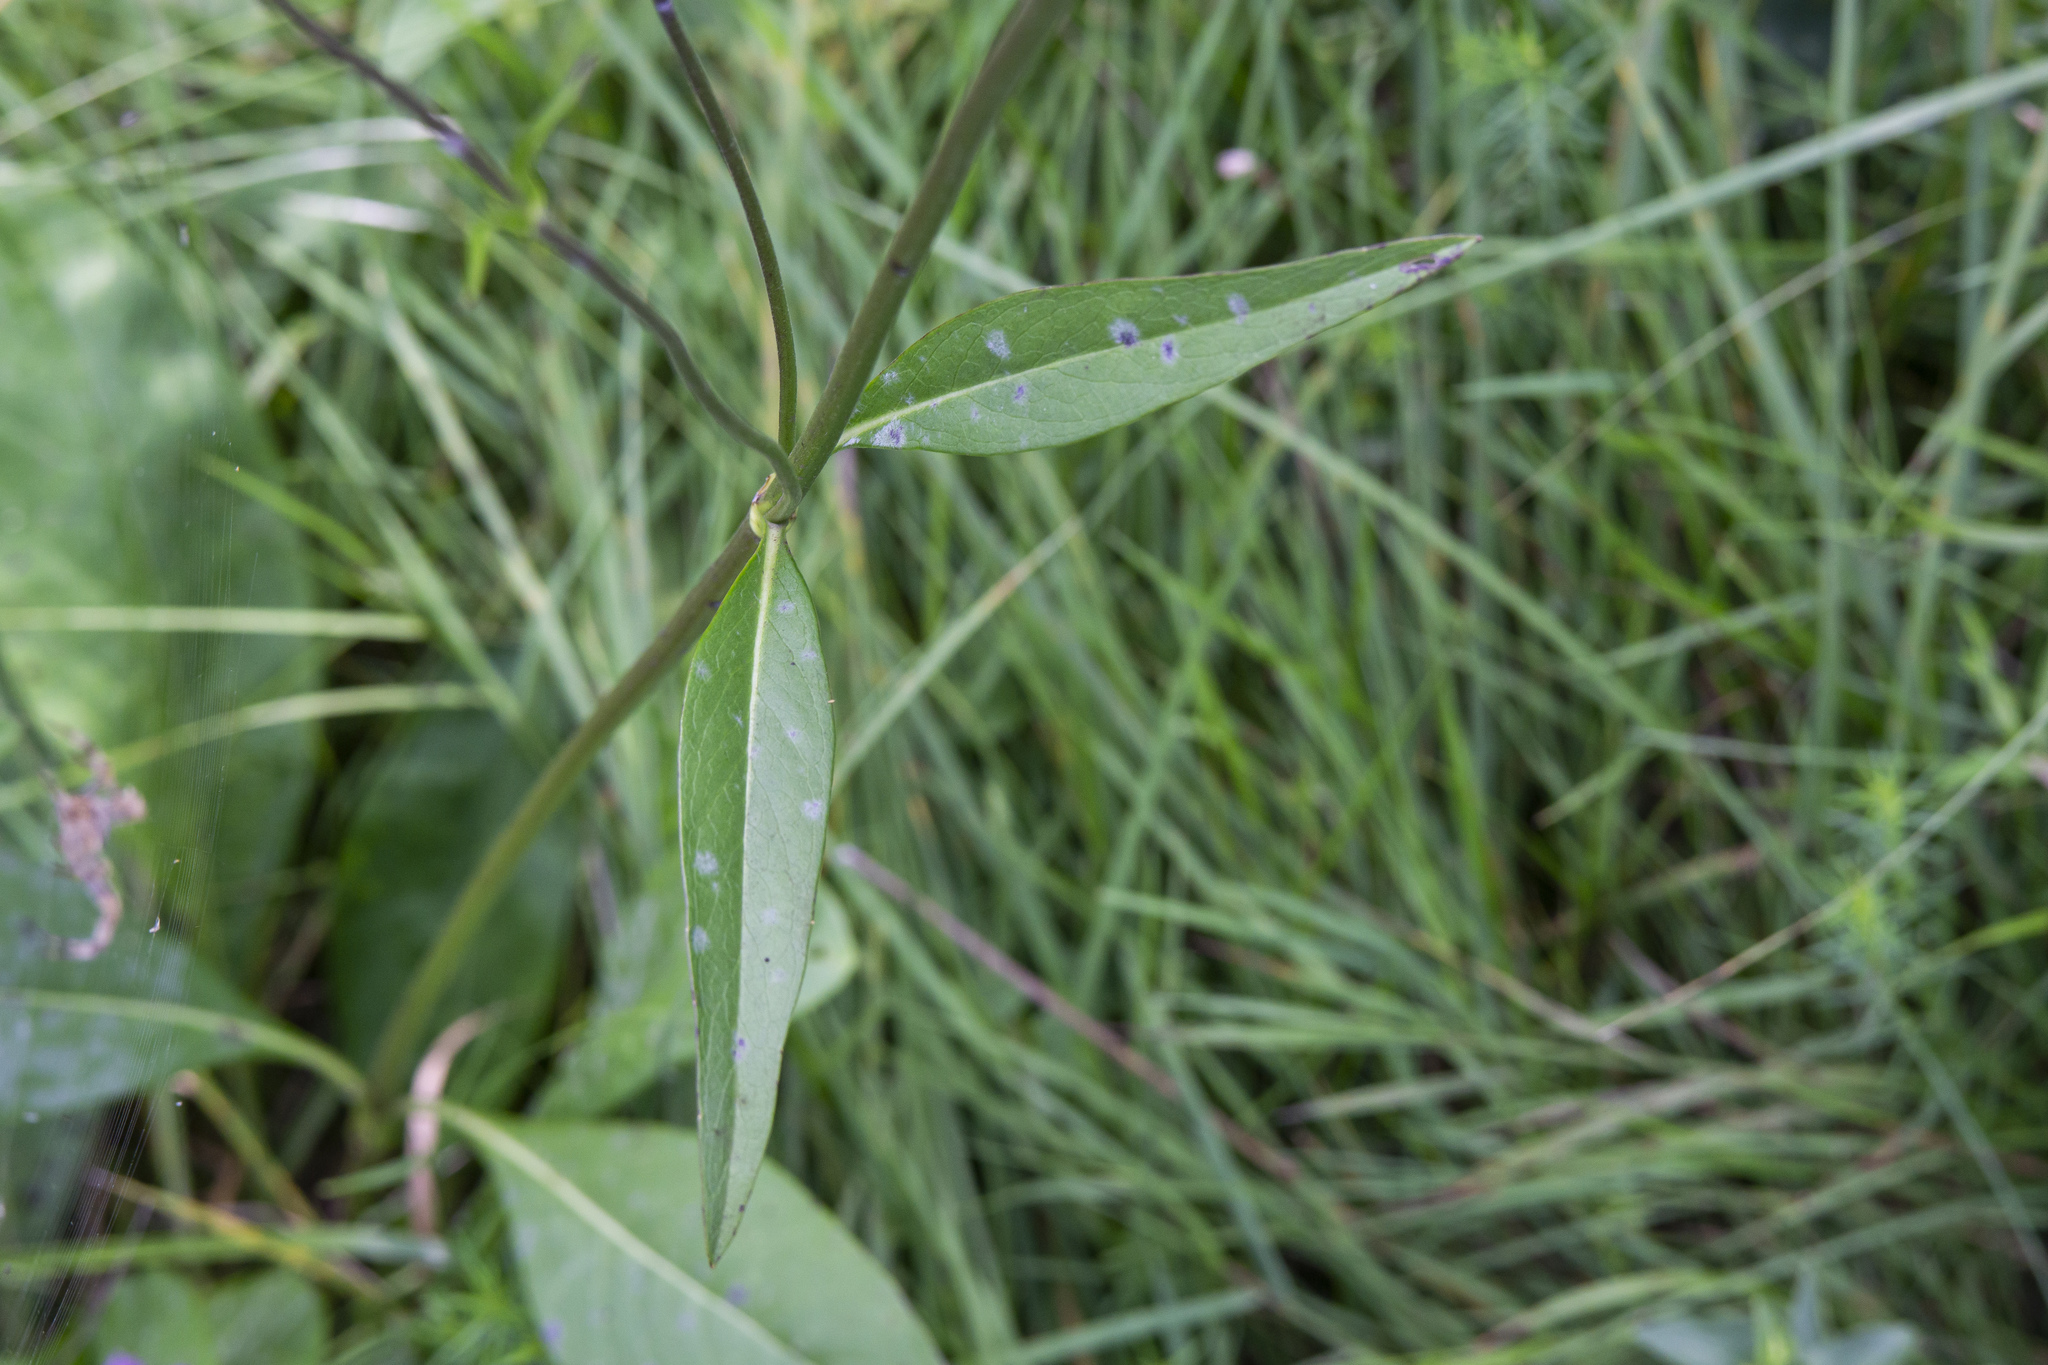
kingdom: Plantae
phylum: Tracheophyta
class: Magnoliopsida
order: Dipsacales
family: Caprifoliaceae
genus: Succisa
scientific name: Succisa pratensis
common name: Devil's-bit
